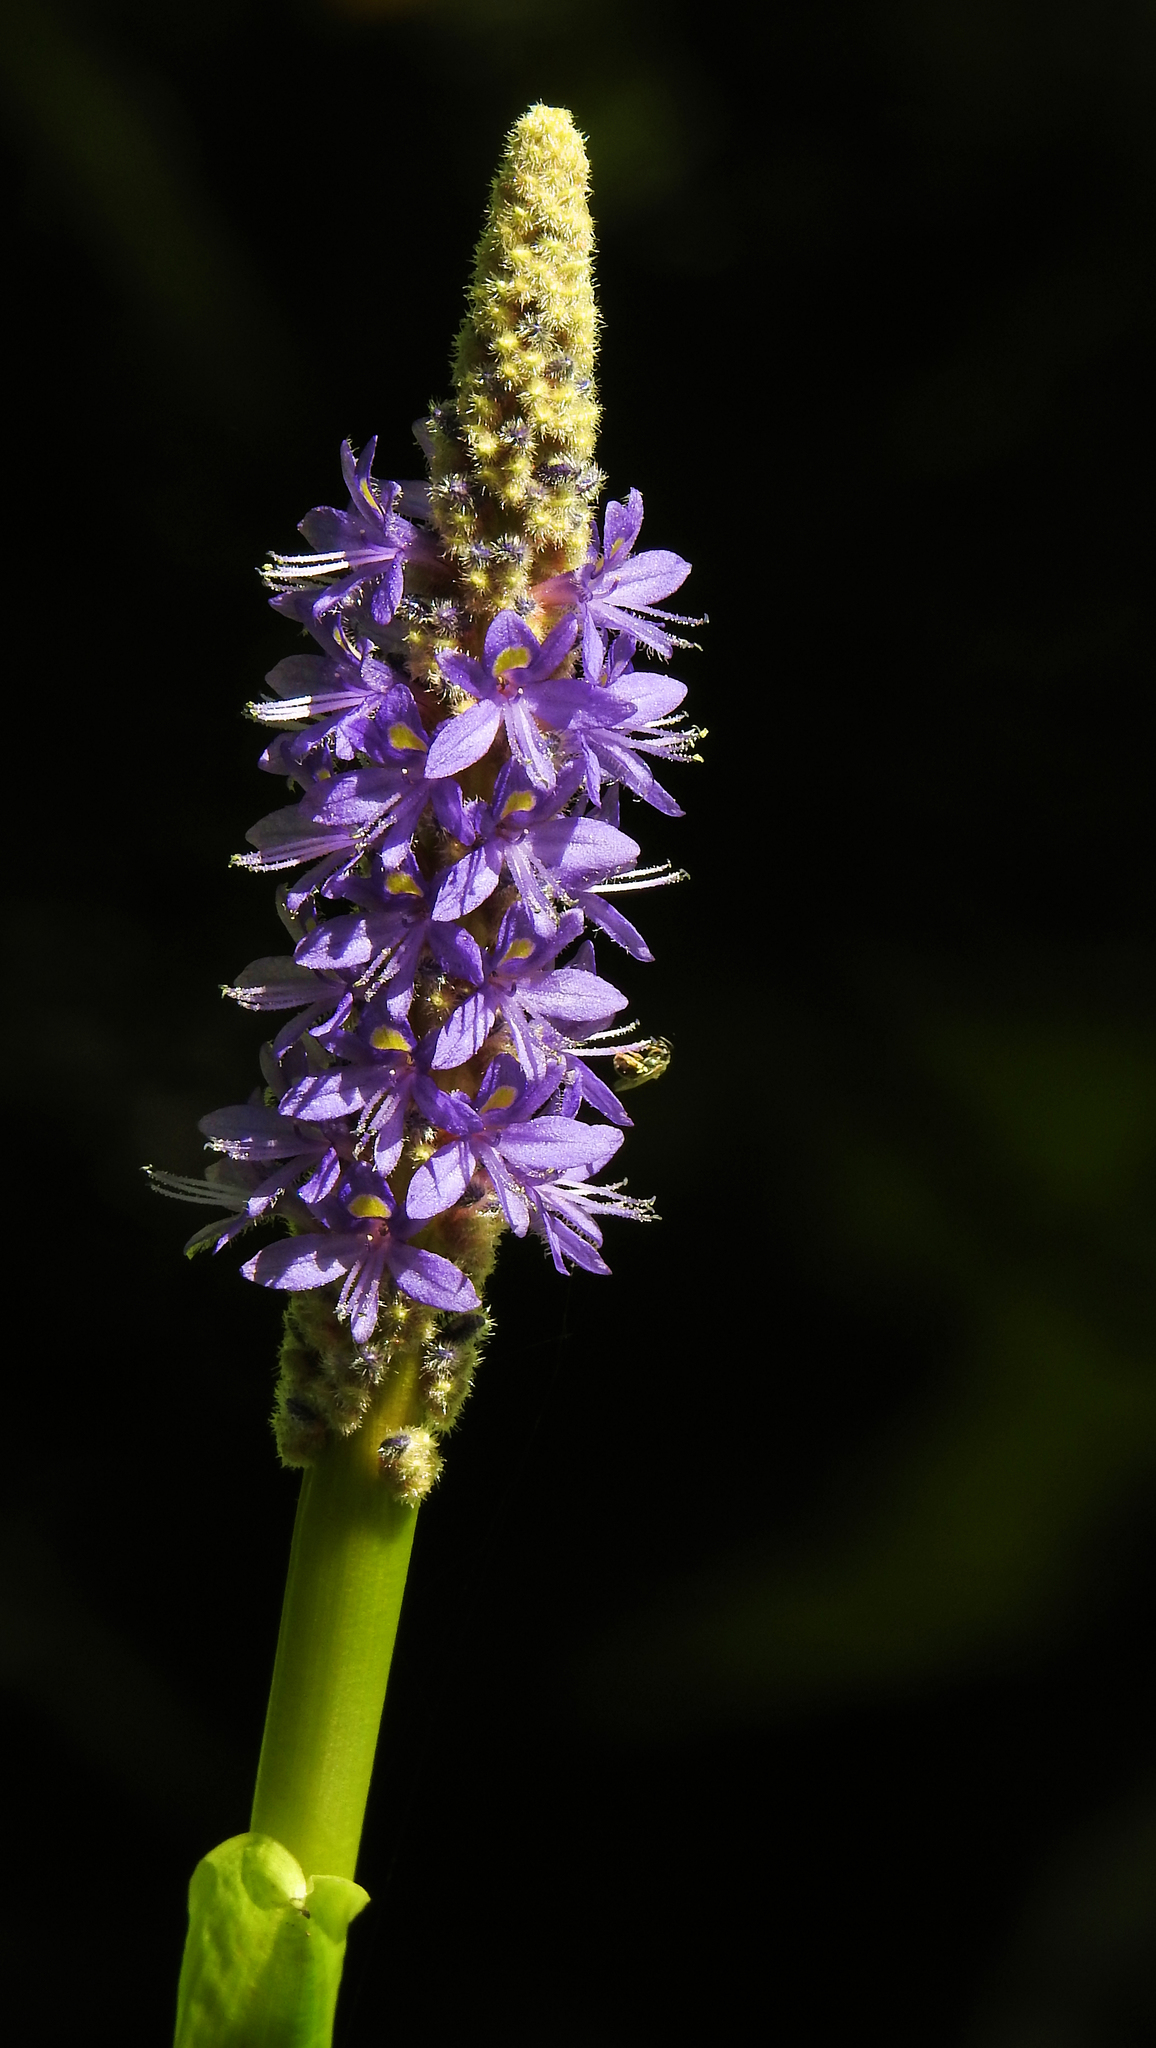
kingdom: Plantae
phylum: Tracheophyta
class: Liliopsida
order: Commelinales
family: Pontederiaceae
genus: Pontederia
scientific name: Pontederia cordata
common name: Pickerelweed
